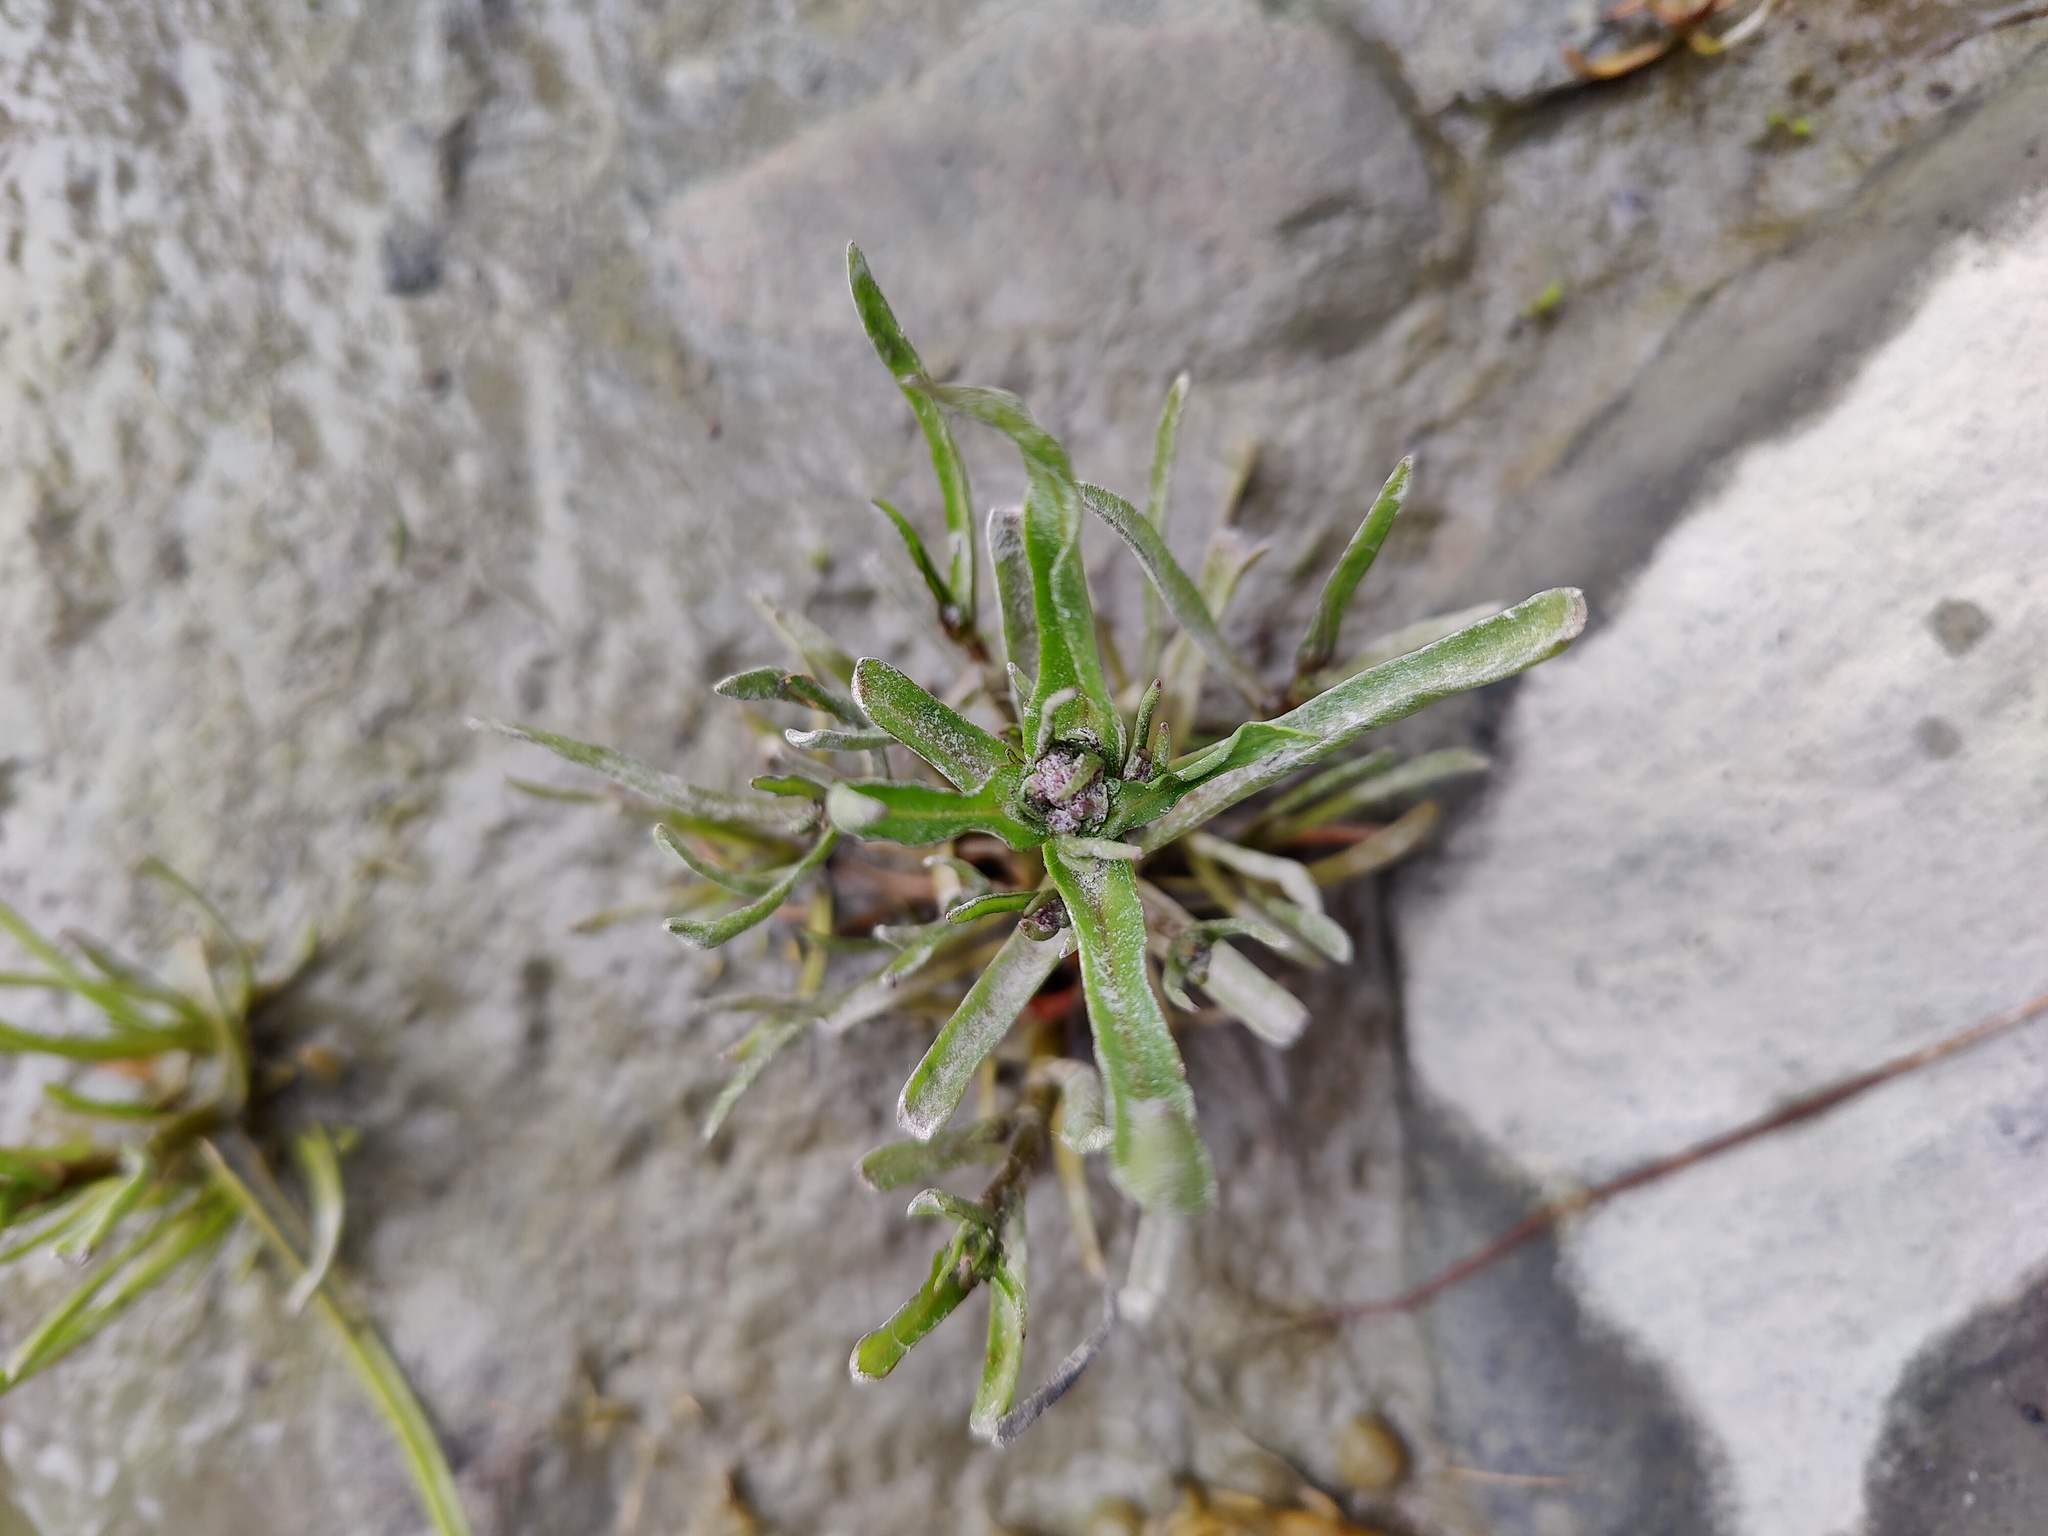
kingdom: Plantae
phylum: Tracheophyta
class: Magnoliopsida
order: Asterales
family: Asteraceae
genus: Tripolium
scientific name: Tripolium pannonicum
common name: Sea aster
